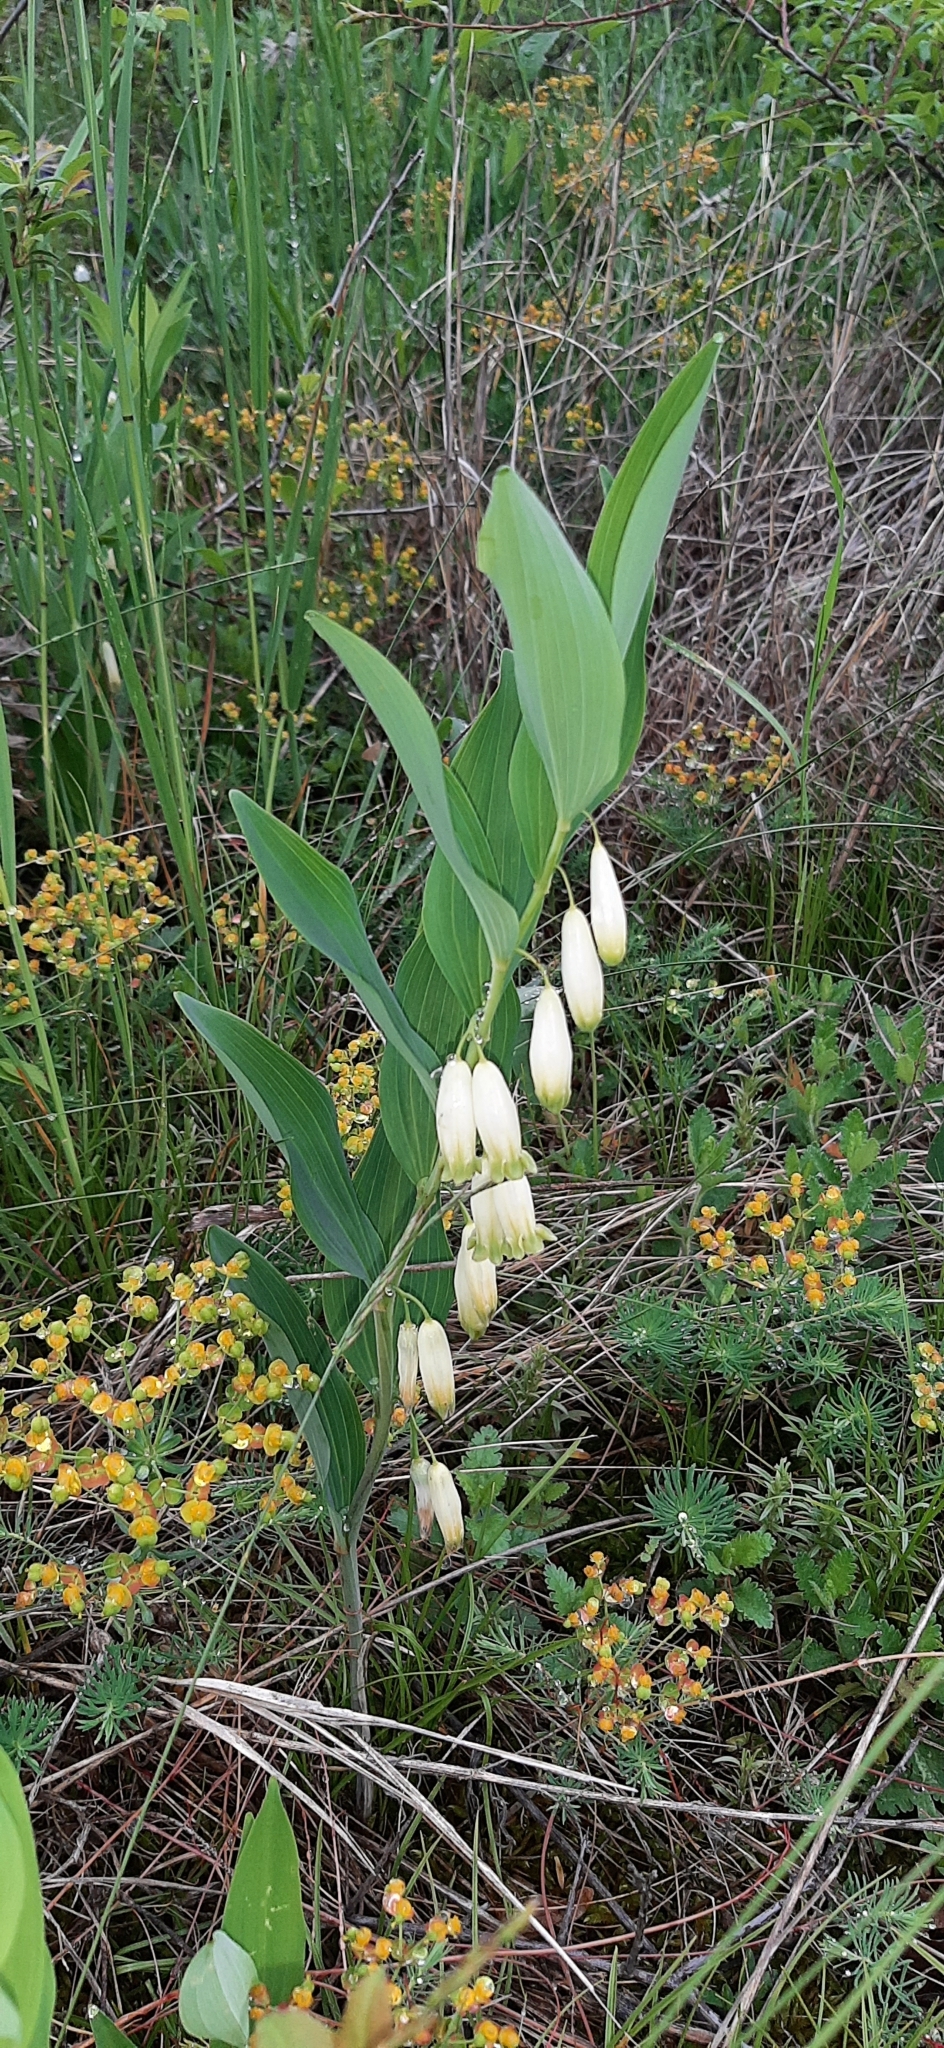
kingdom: Plantae
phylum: Tracheophyta
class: Liliopsida
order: Asparagales
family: Asparagaceae
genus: Polygonatum
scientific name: Polygonatum odoratum
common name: Angular solomon's-seal
